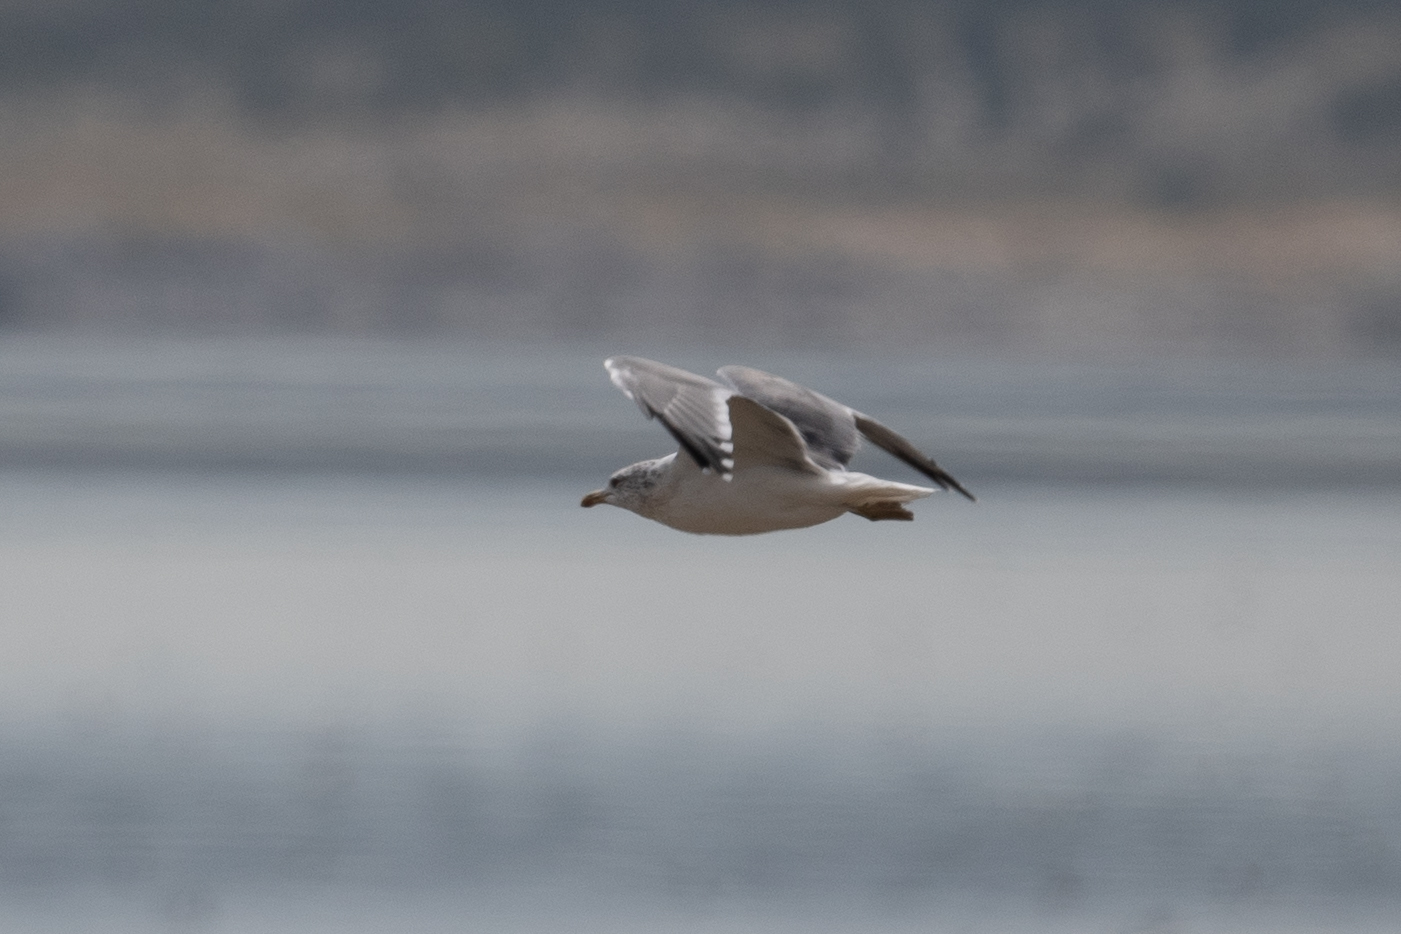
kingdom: Animalia
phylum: Chordata
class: Aves
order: Charadriiformes
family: Laridae
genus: Larus
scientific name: Larus californicus
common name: California gull
